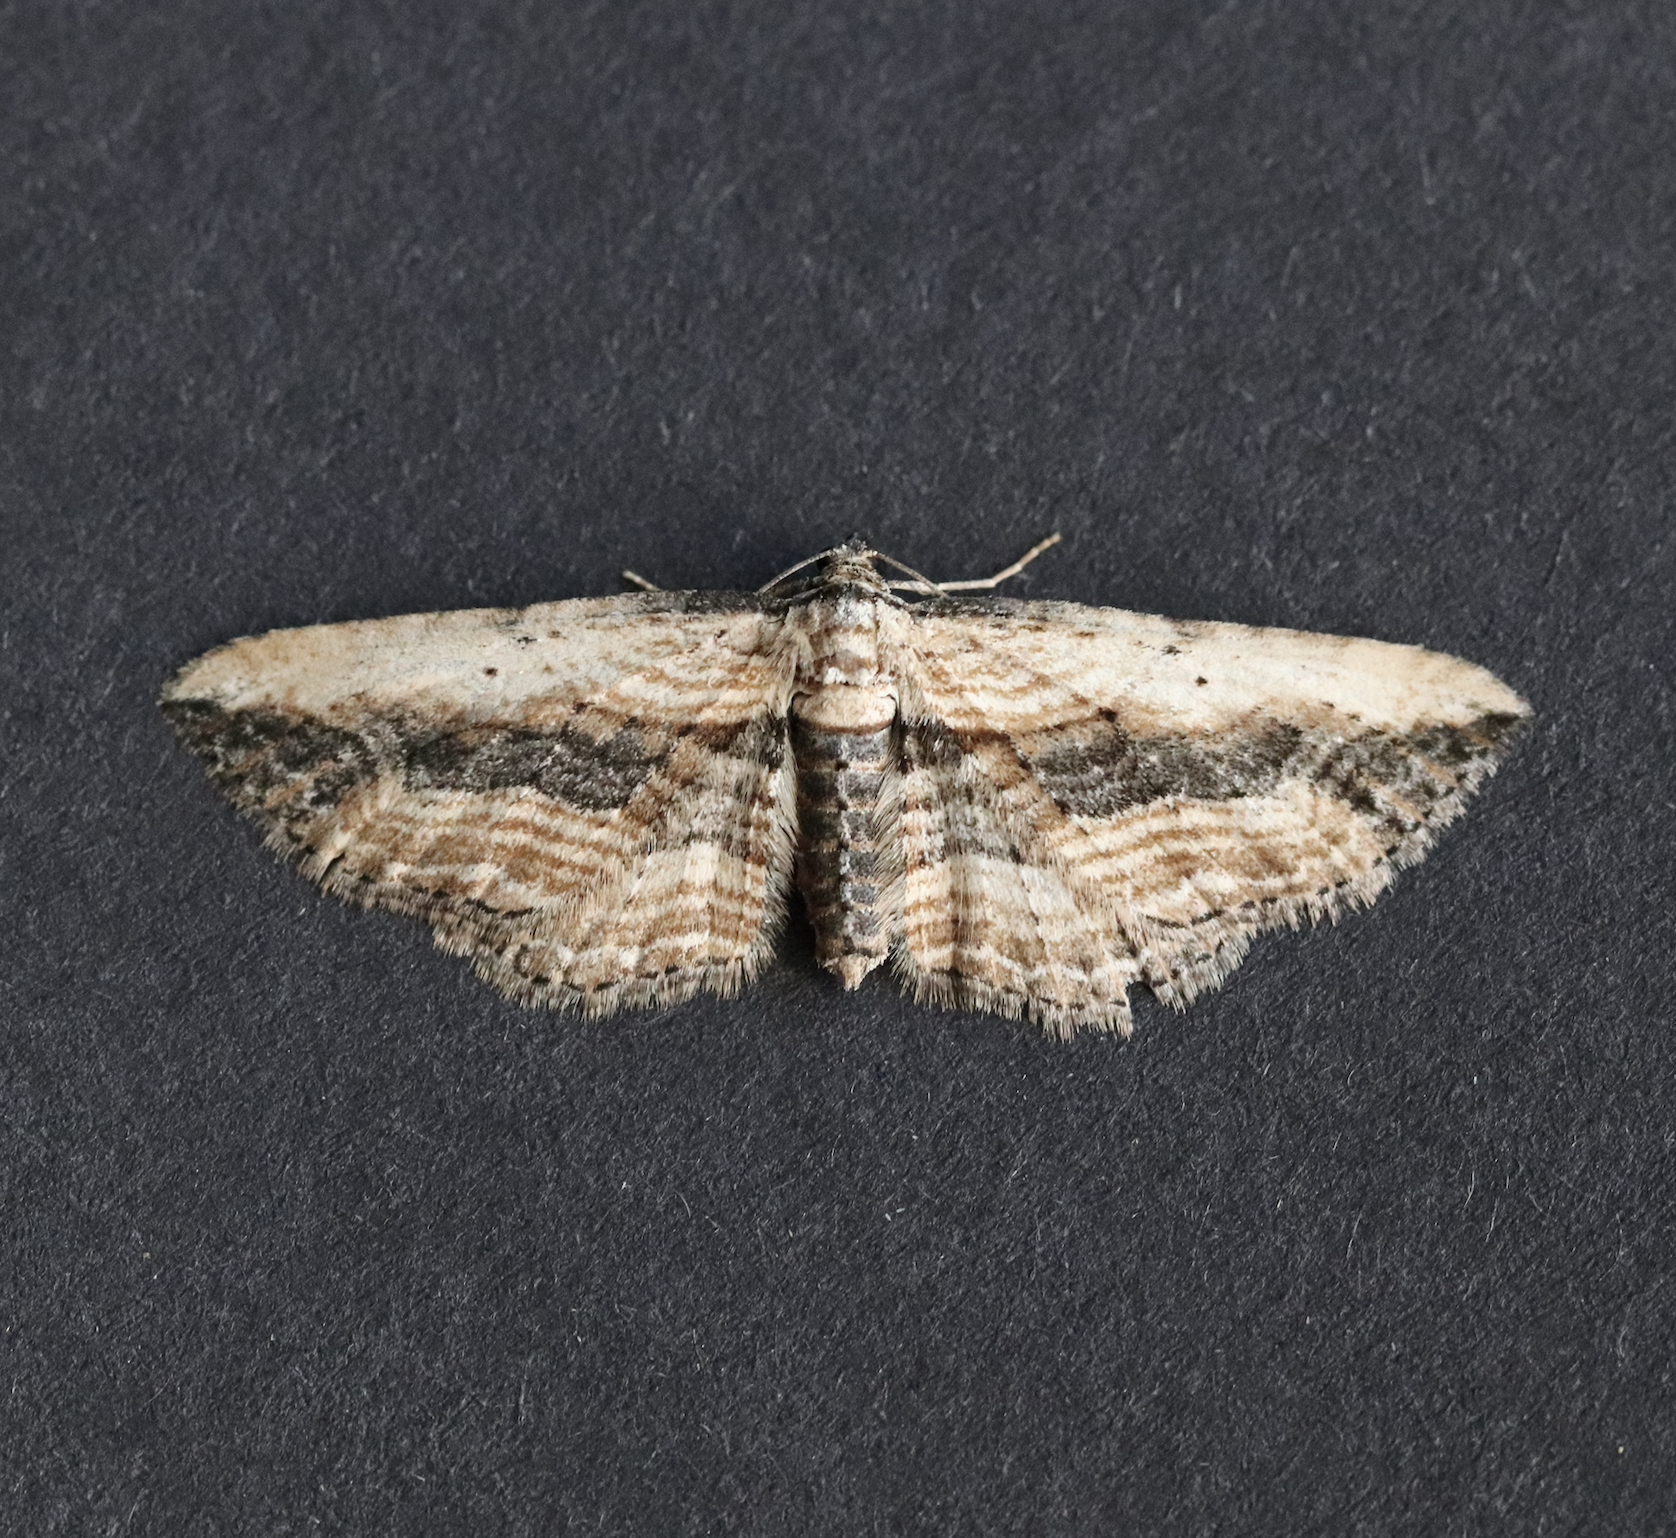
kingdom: Animalia
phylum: Arthropoda
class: Insecta
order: Lepidoptera
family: Geometridae
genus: Horisme
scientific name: Horisme vitalbata
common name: Small waved umber
